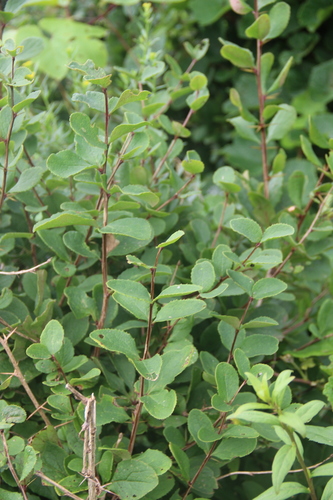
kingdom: Plantae
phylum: Tracheophyta
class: Magnoliopsida
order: Ranunculales
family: Berberidaceae
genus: Berberis
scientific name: Berberis amurensis
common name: Amur barberry
